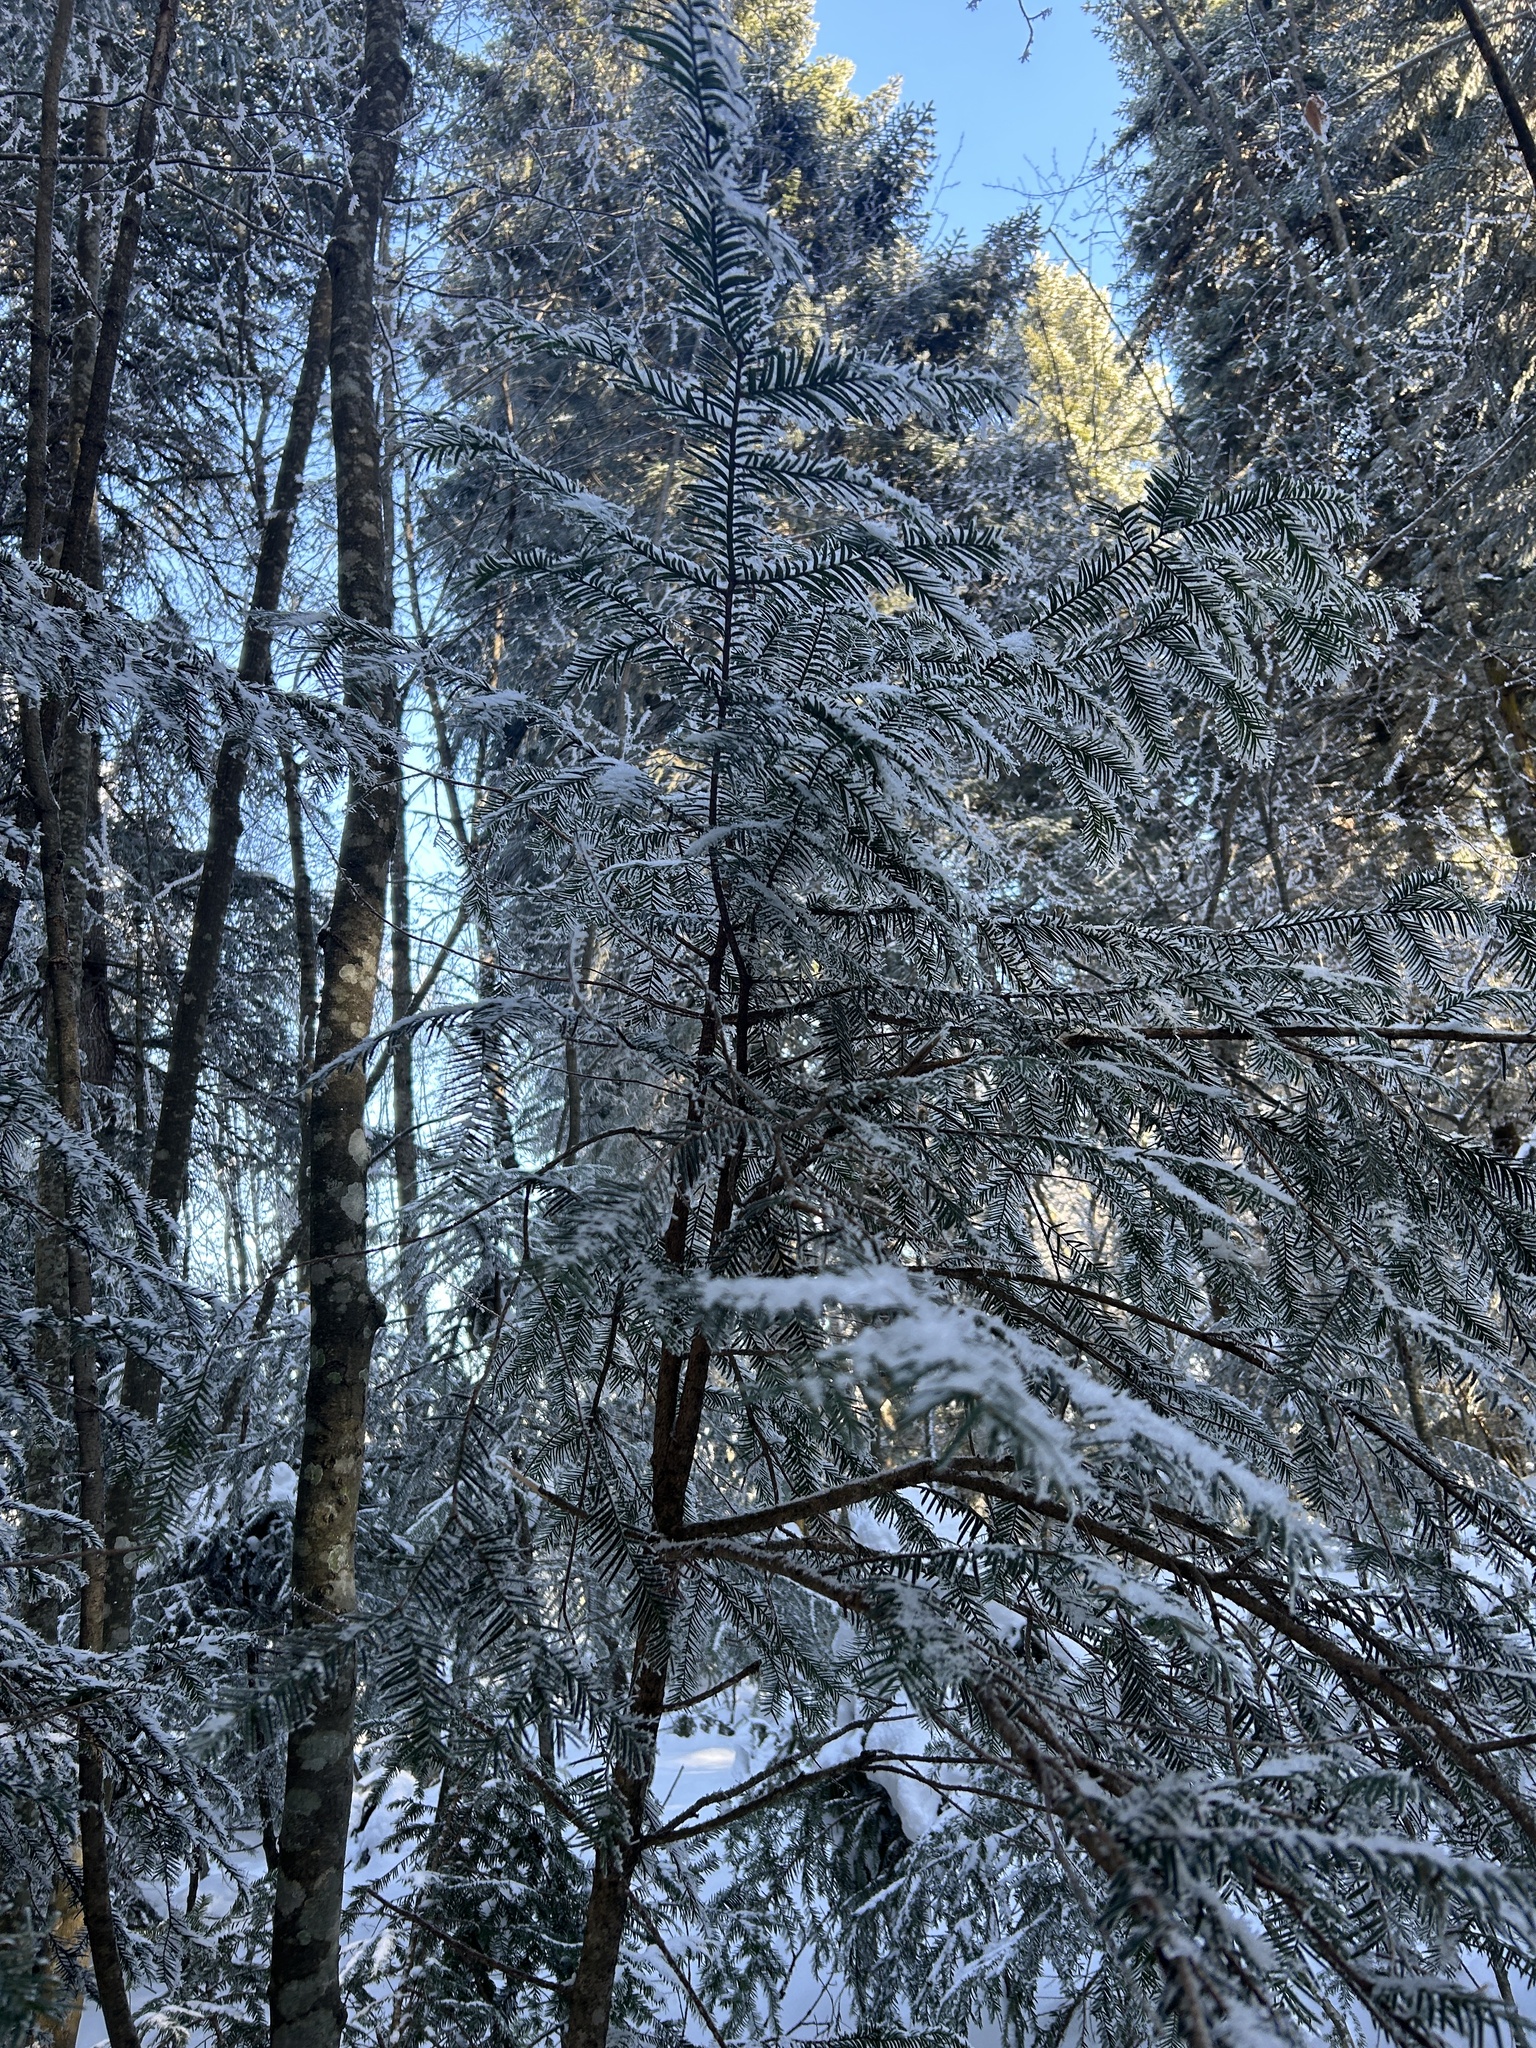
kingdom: Plantae
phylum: Tracheophyta
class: Pinopsida
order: Pinales
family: Taxaceae
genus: Taxus
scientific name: Taxus baccata
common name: Yew
